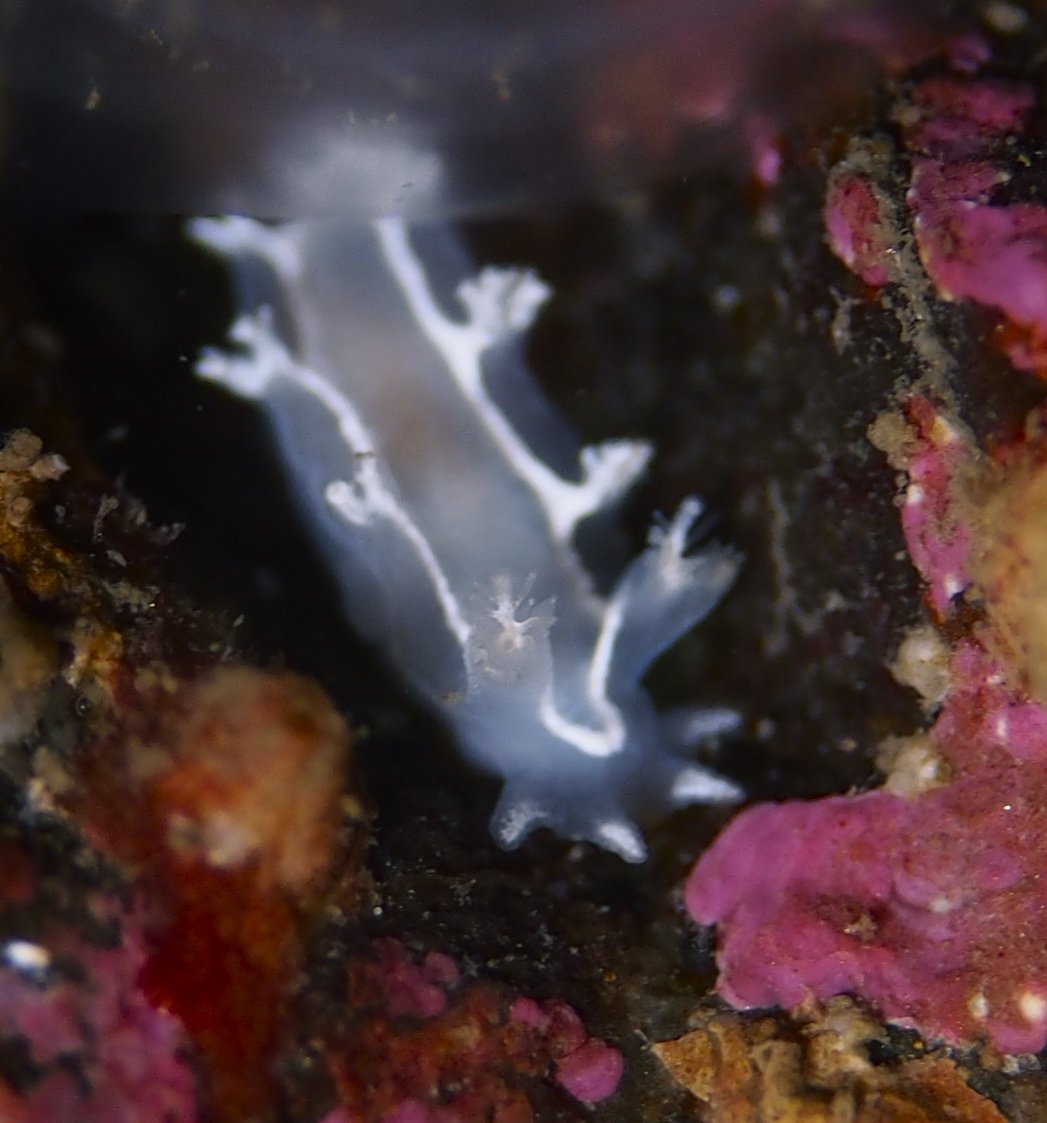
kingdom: Animalia
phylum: Mollusca
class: Gastropoda
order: Nudibranchia
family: Tritoniidae
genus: Duvaucelia
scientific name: Duvaucelia lineata
